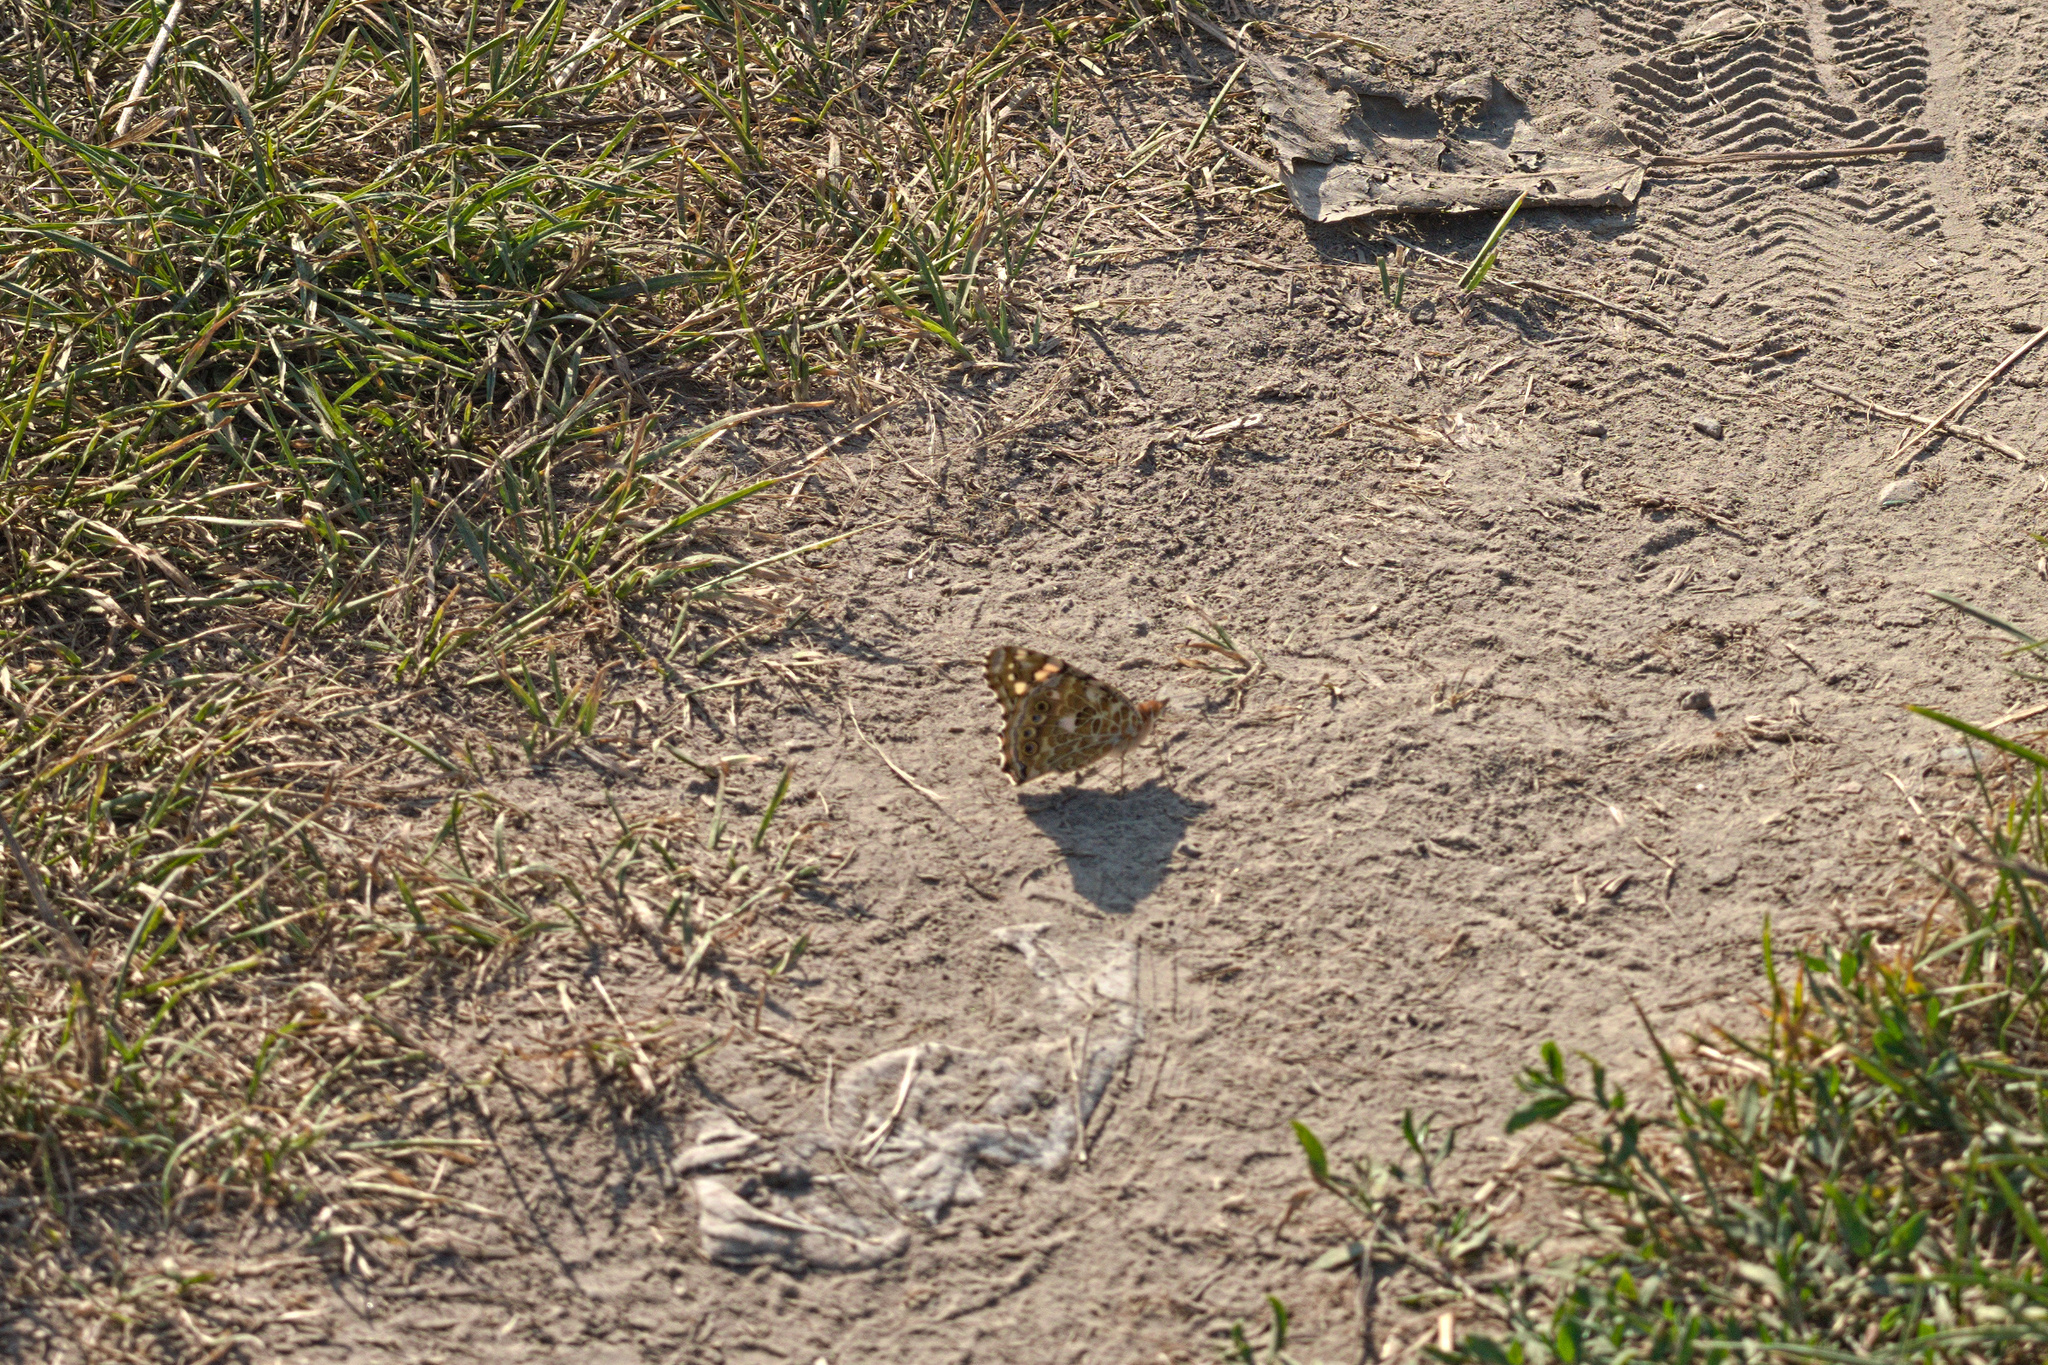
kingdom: Animalia
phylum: Arthropoda
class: Insecta
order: Lepidoptera
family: Nymphalidae
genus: Vanessa
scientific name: Vanessa cardui
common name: Painted lady
